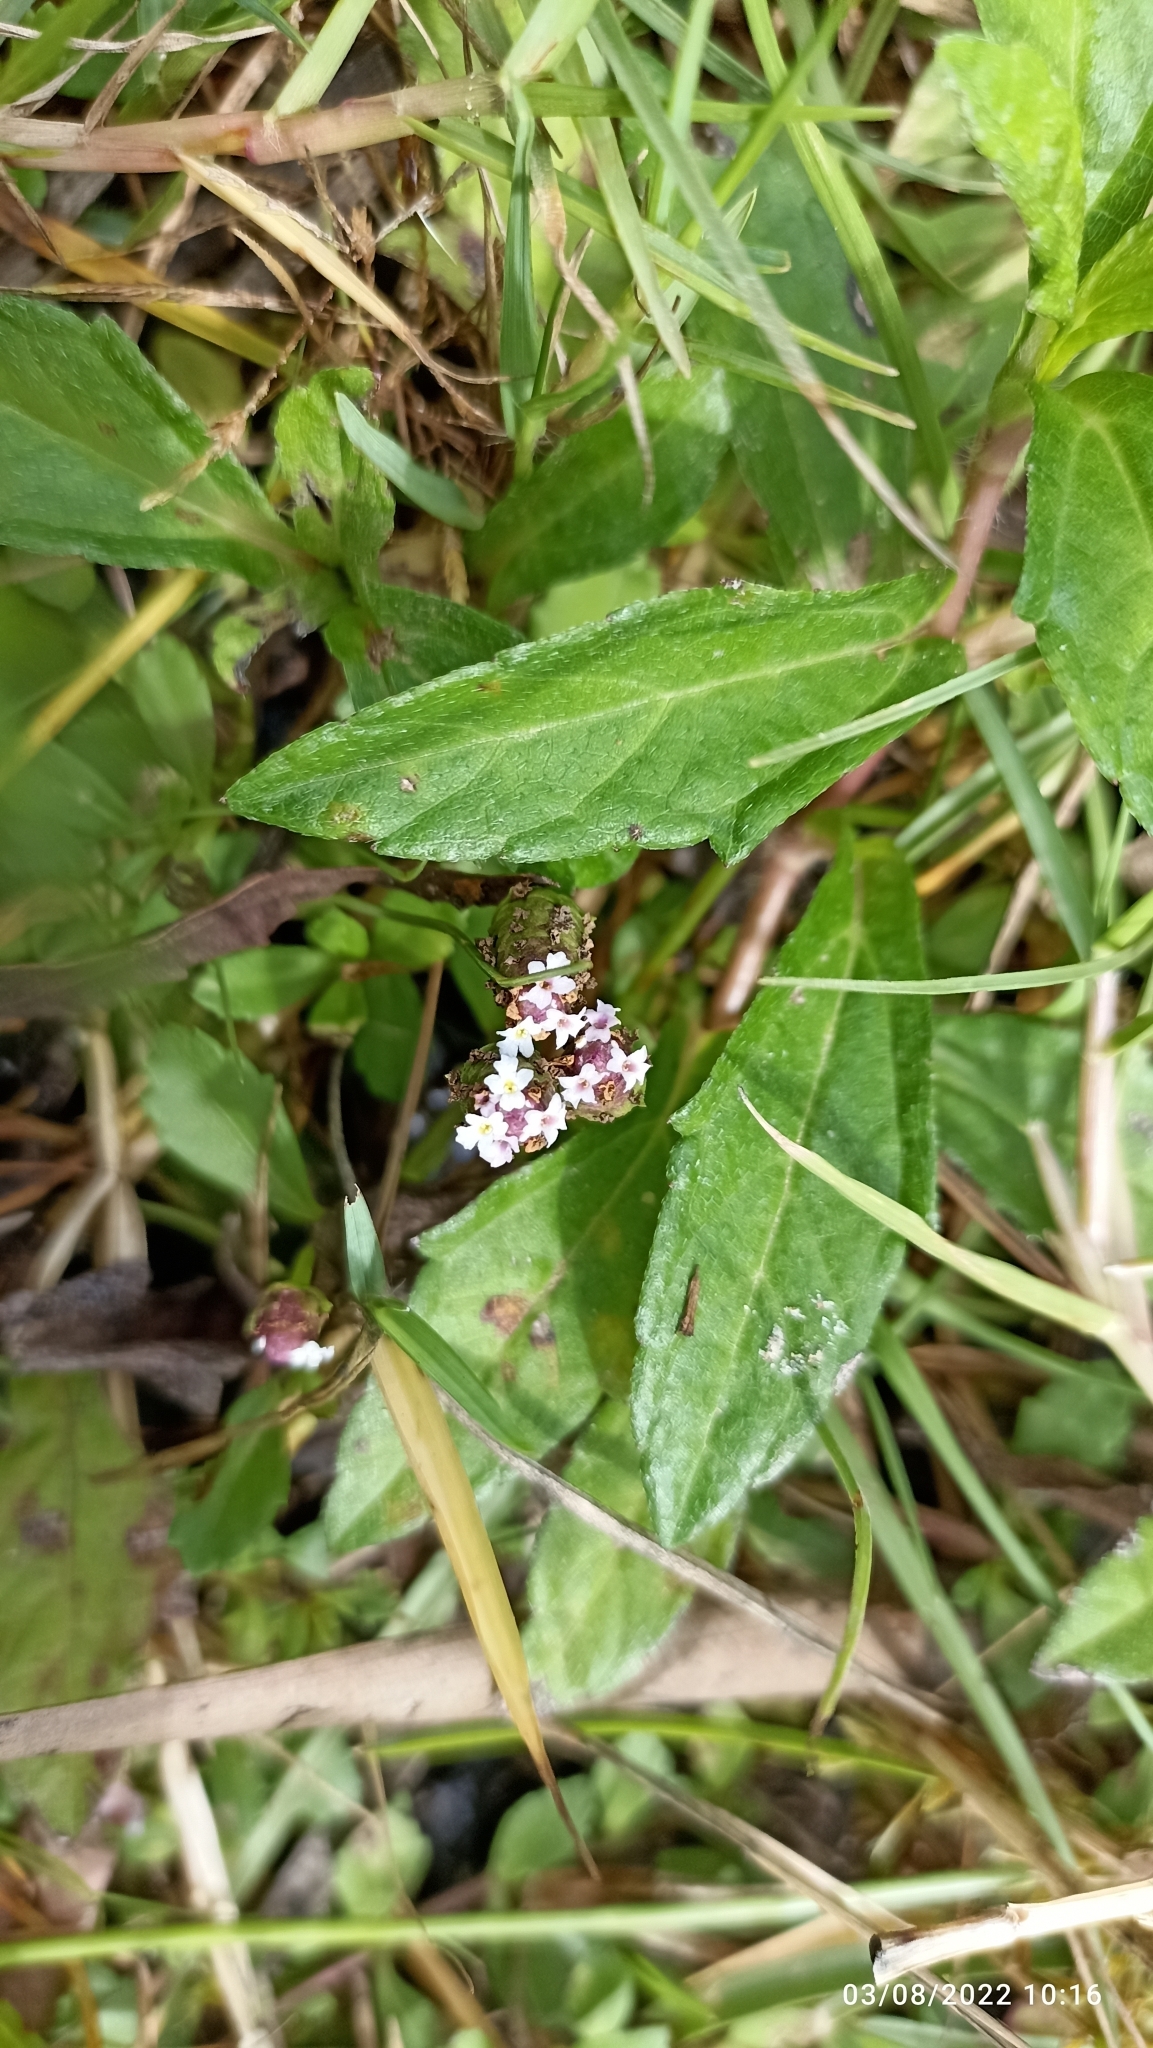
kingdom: Plantae
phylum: Tracheophyta
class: Magnoliopsida
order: Lamiales
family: Verbenaceae
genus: Phyla
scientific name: Phyla nodiflora
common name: Frogfruit
